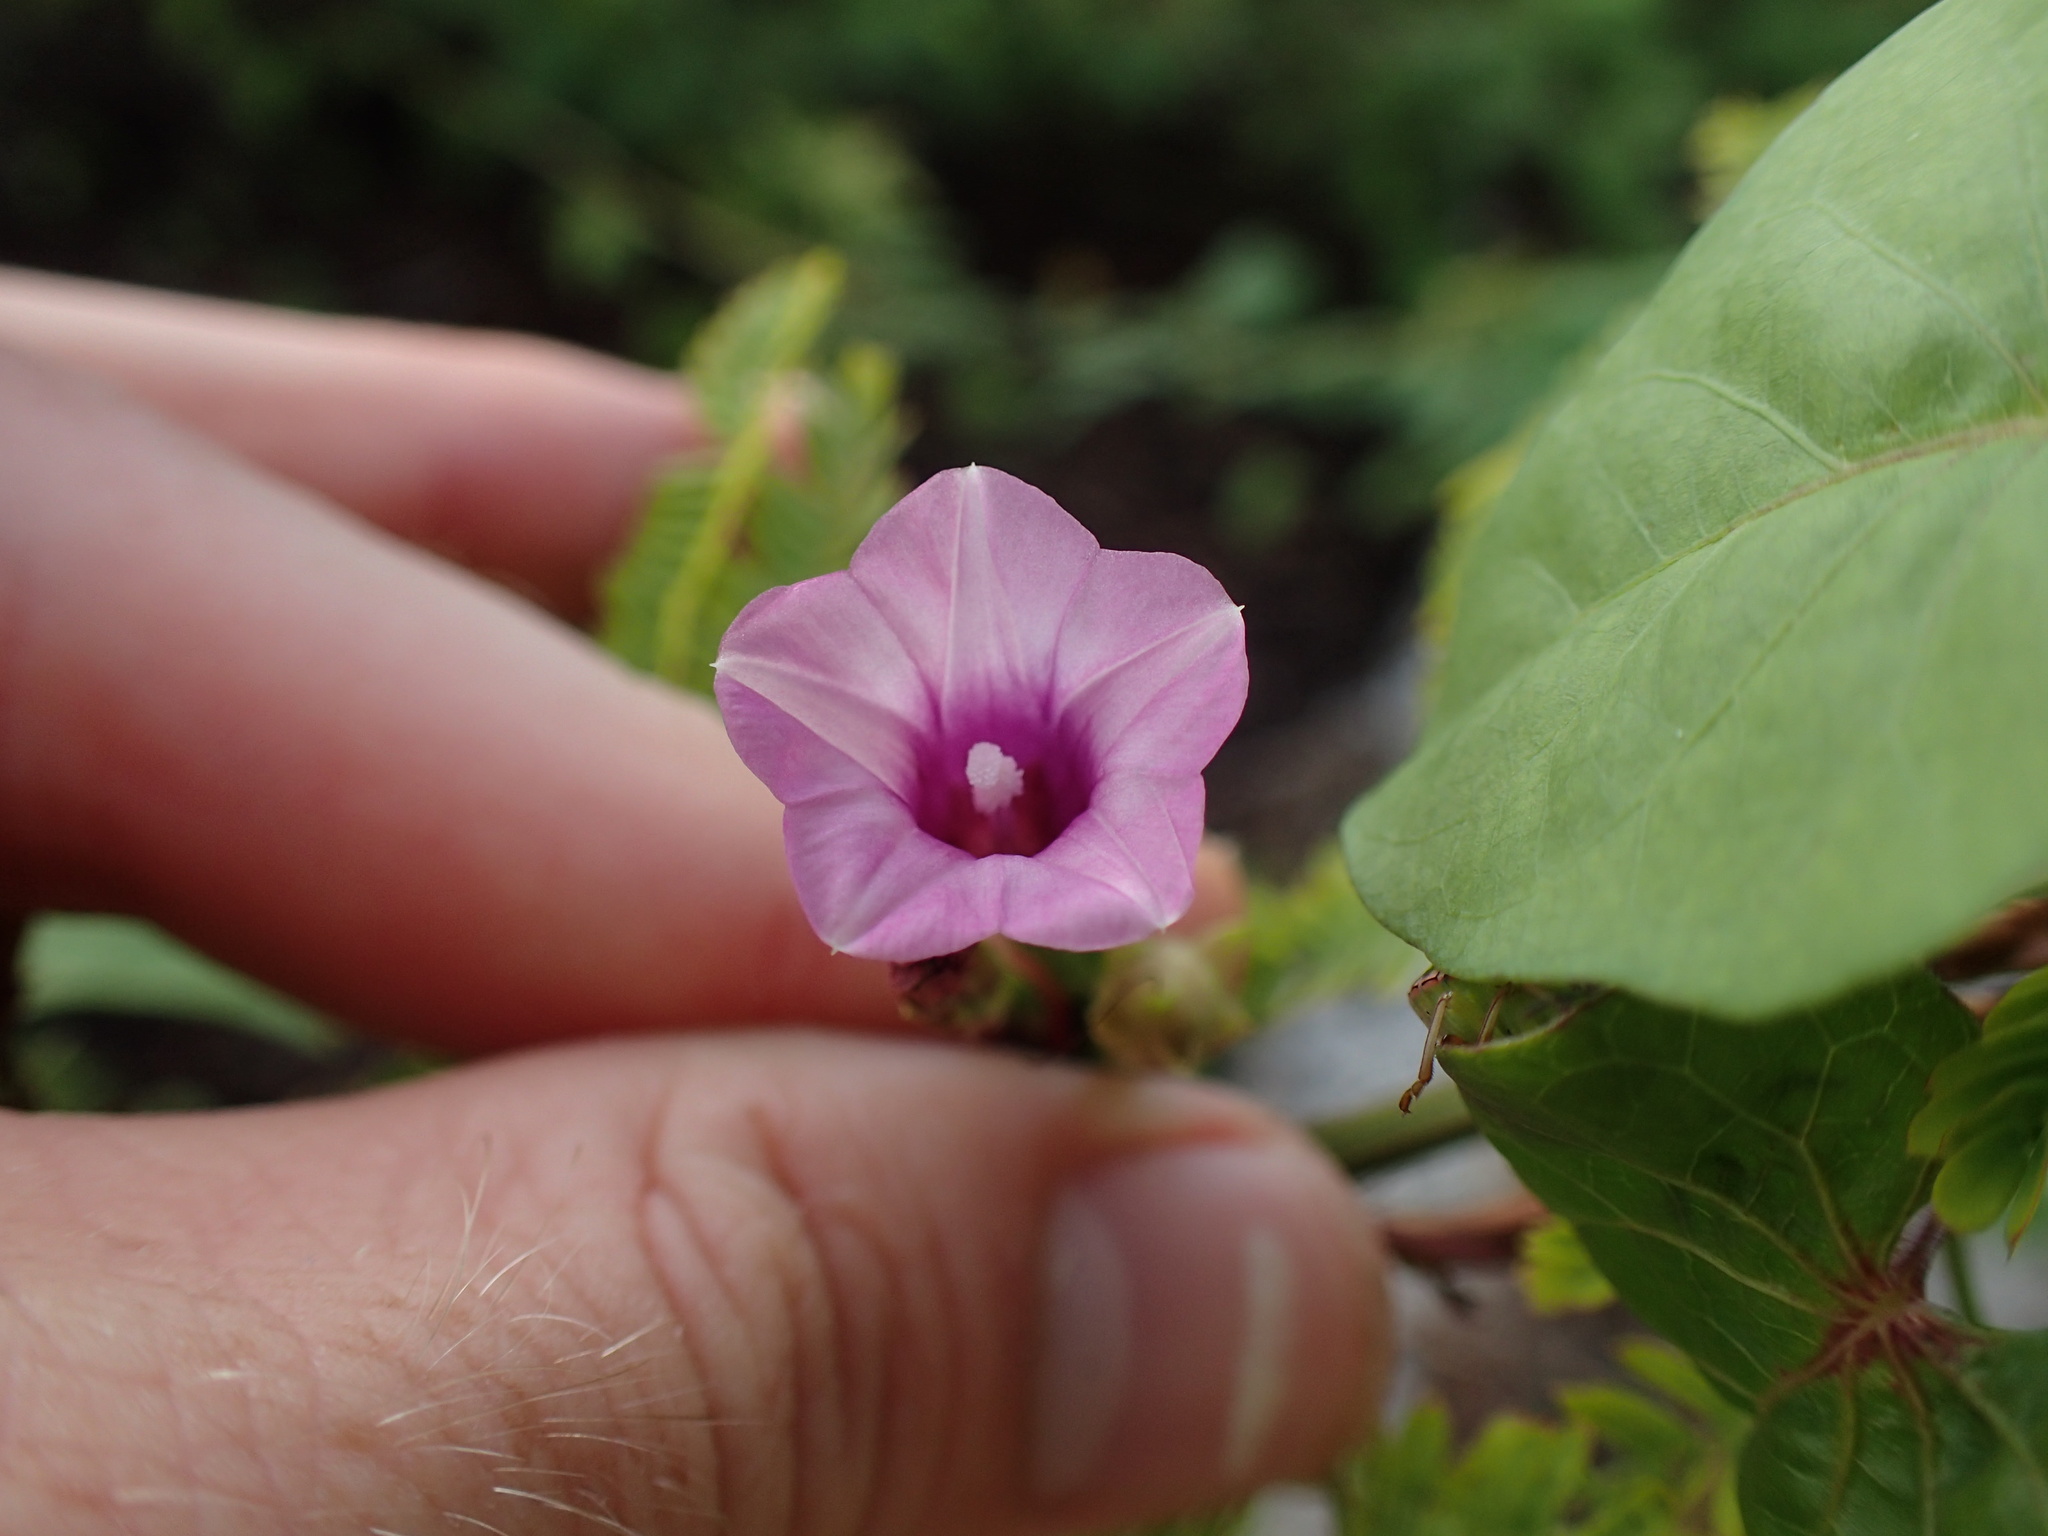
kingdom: Plantae
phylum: Tracheophyta
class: Magnoliopsida
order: Solanales
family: Convolvulaceae
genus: Ipomoea
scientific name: Ipomoea triloba
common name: Little-bell
